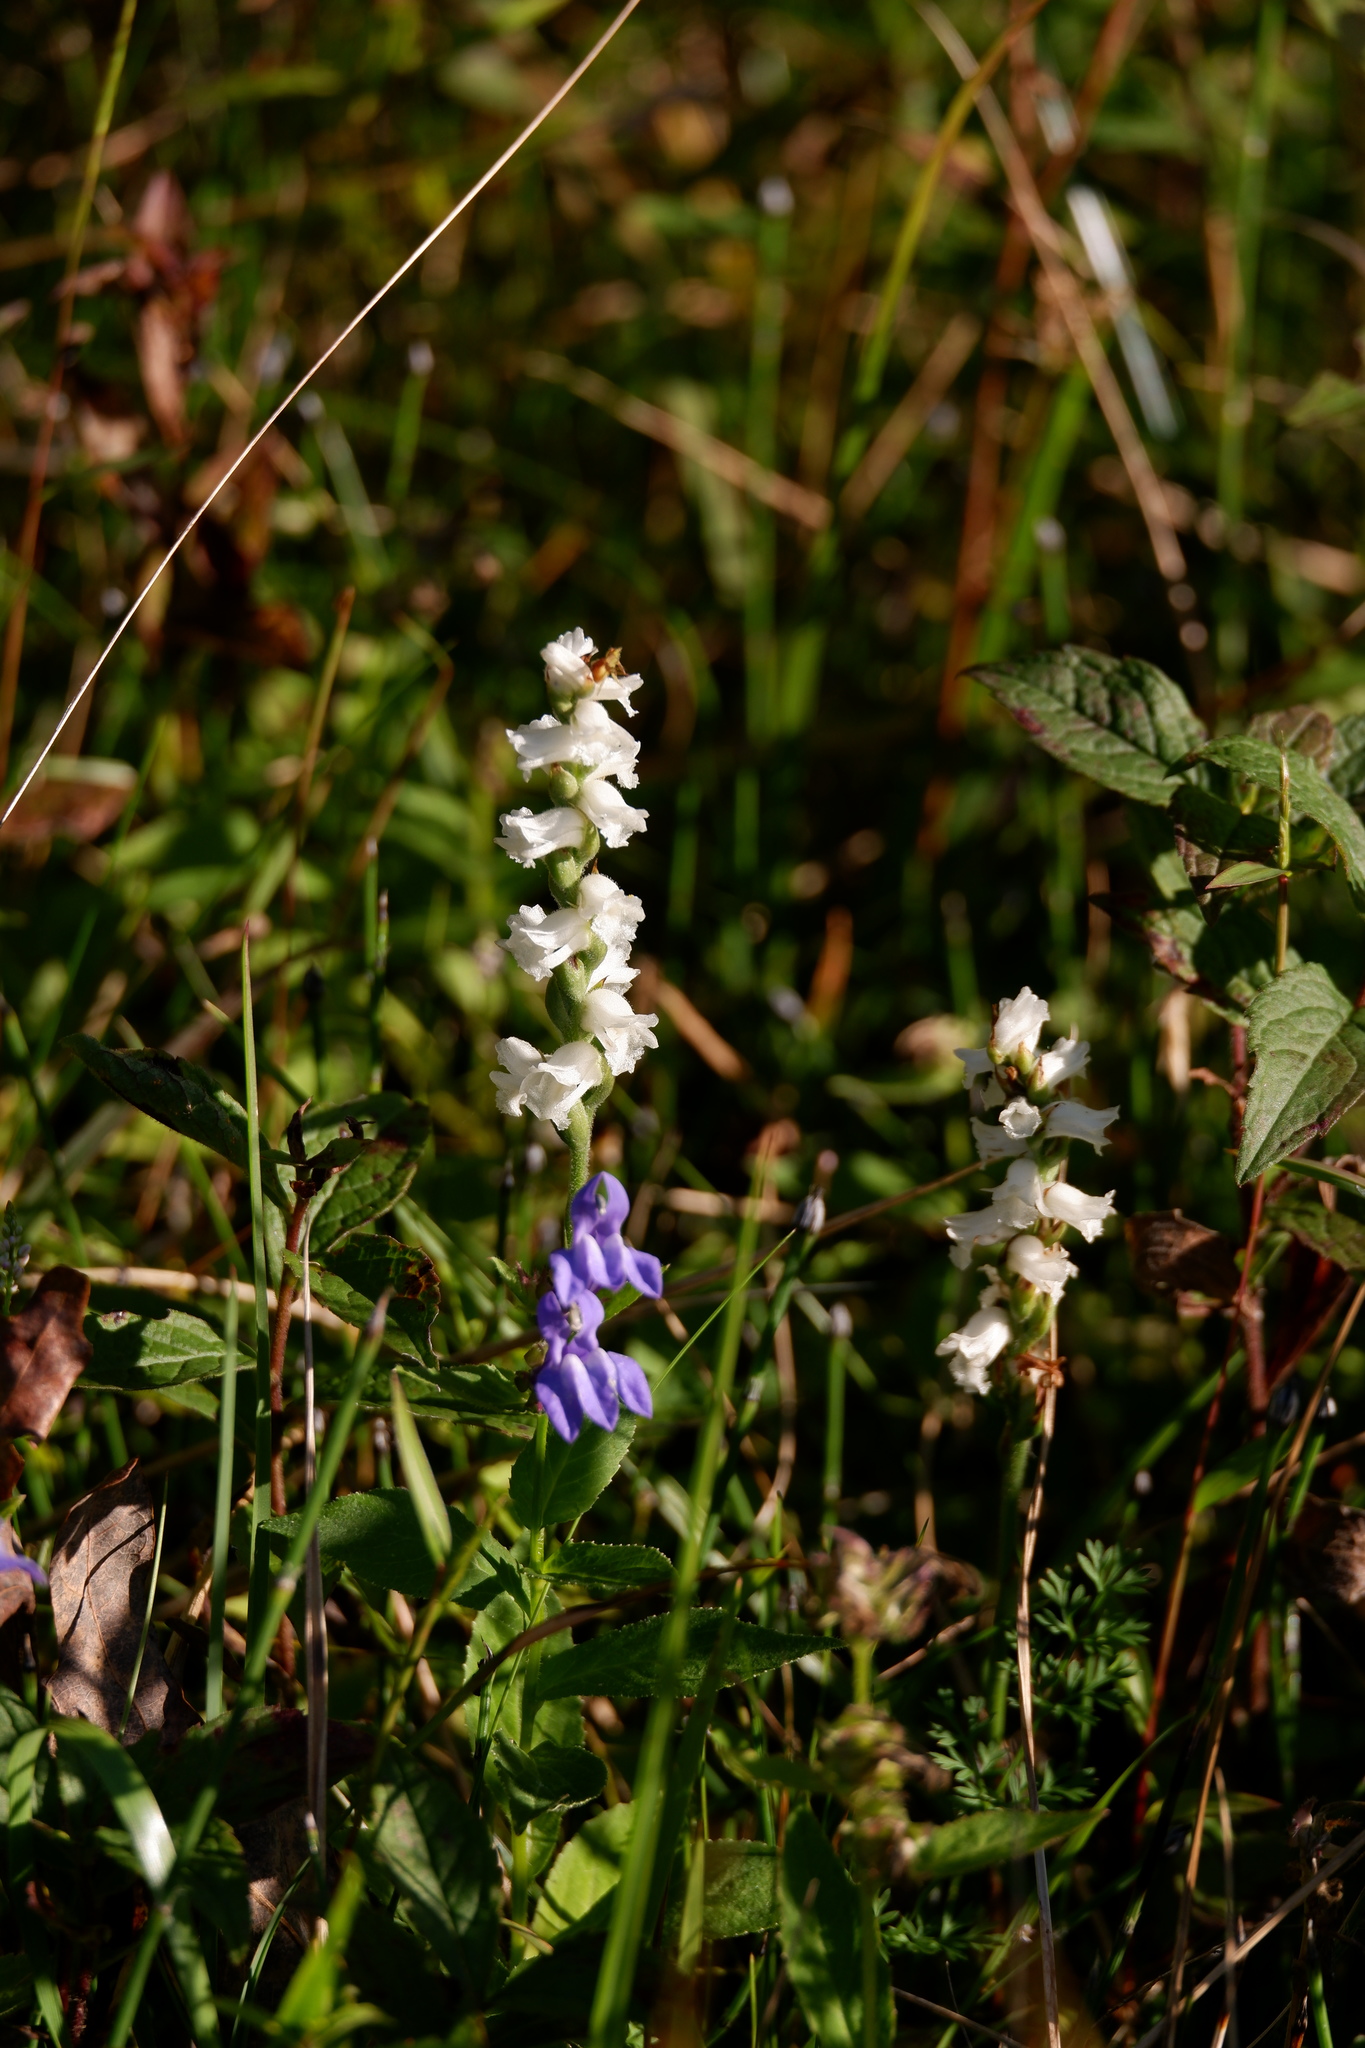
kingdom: Plantae
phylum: Tracheophyta
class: Liliopsida
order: Asparagales
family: Orchidaceae
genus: Spiranthes
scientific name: Spiranthes arcisepala
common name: Appalachian ladies'-tresses
